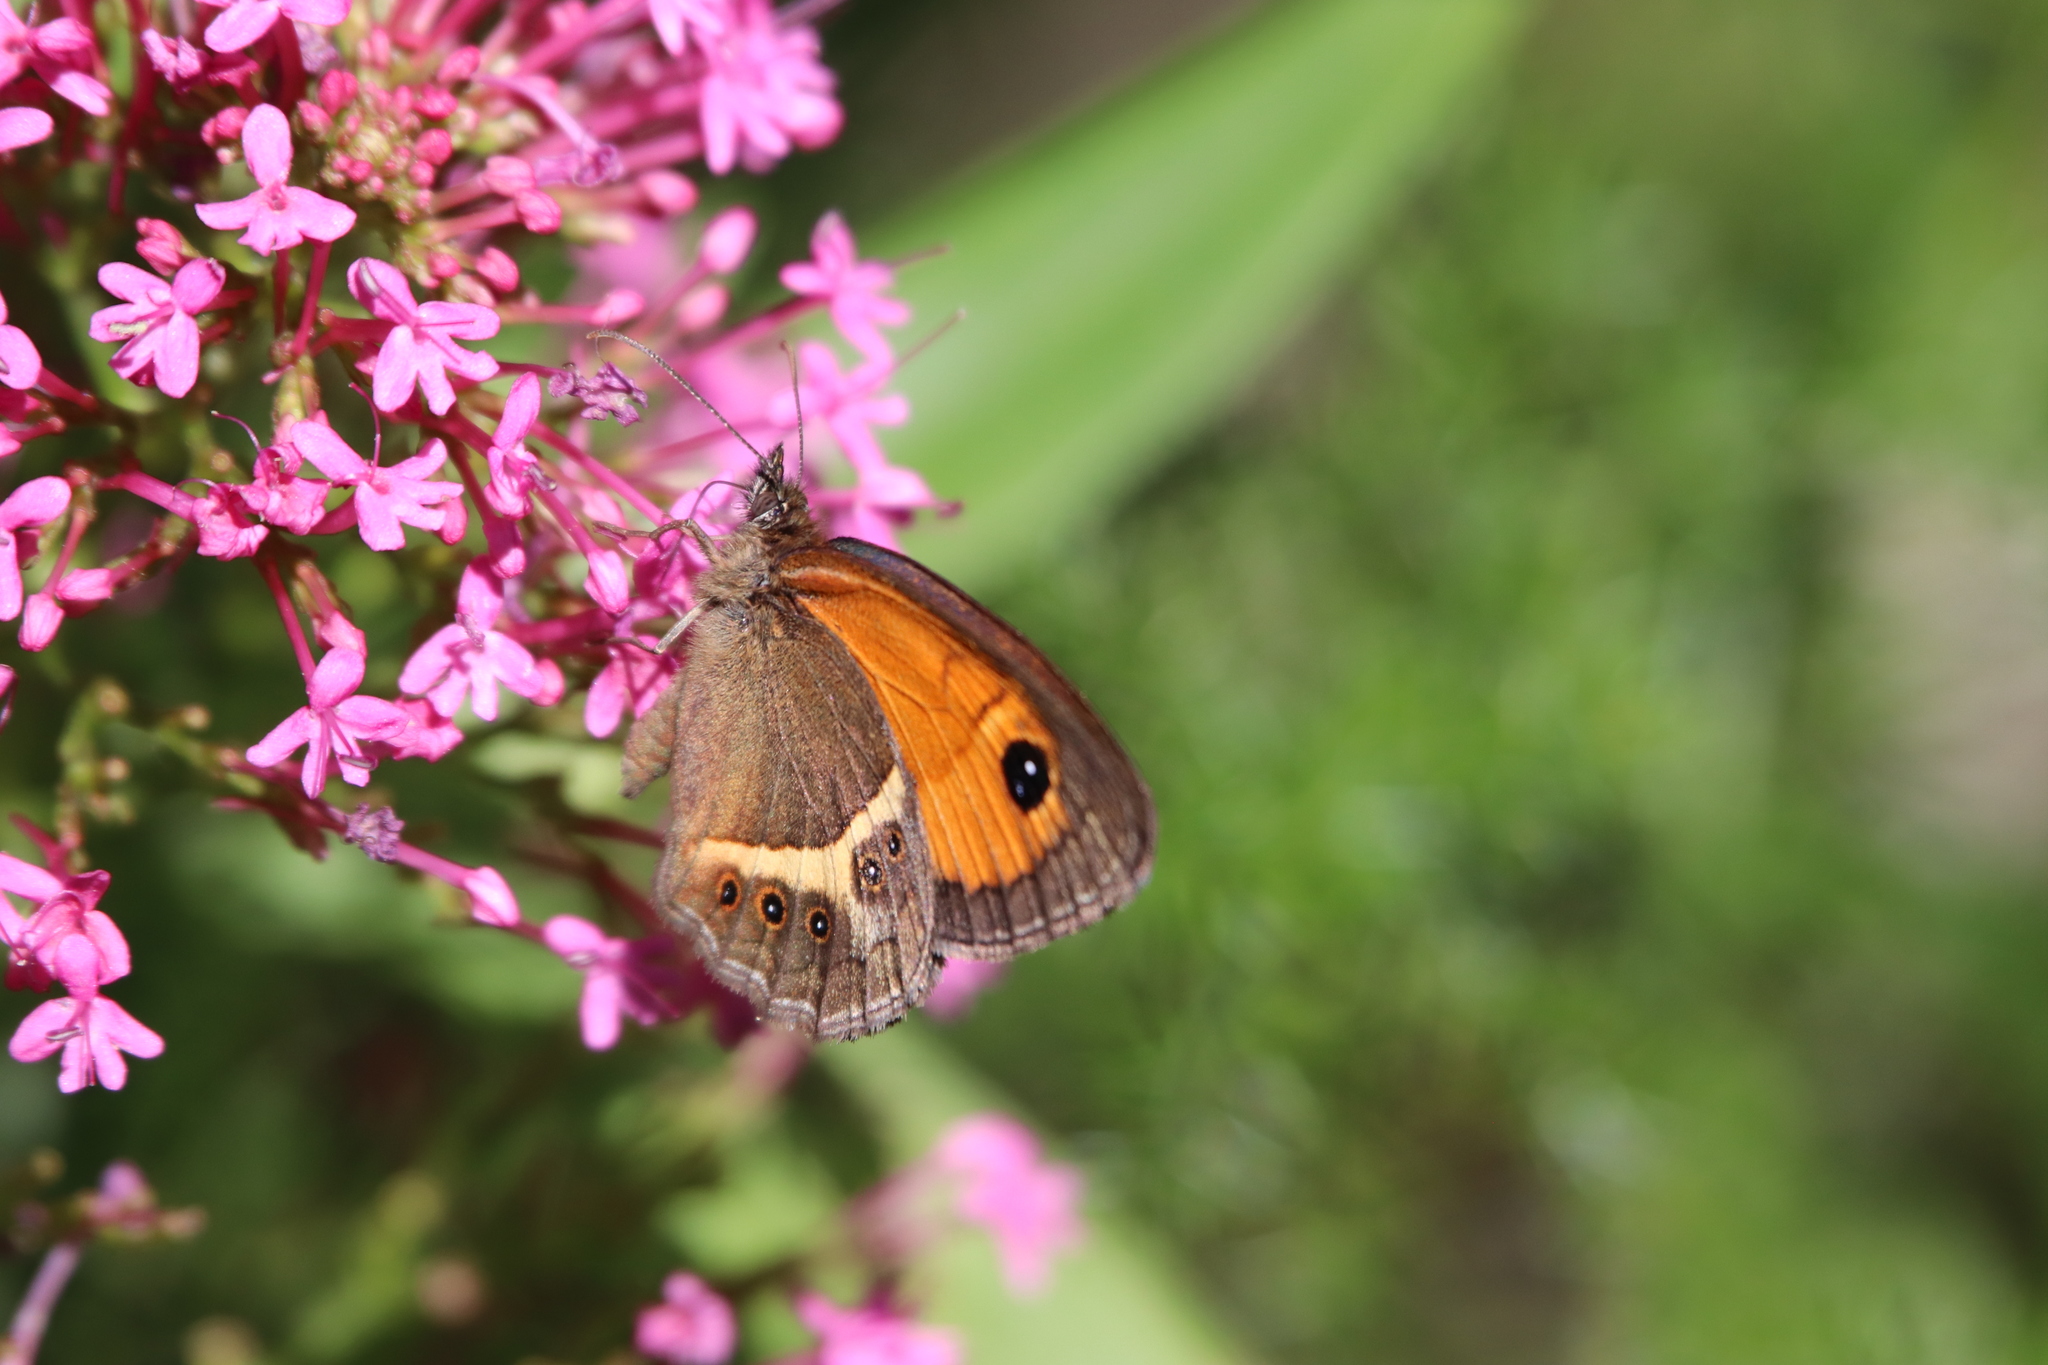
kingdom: Animalia
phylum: Arthropoda
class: Insecta
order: Lepidoptera
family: Nymphalidae
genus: Pyronia
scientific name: Pyronia bathseba
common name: Spanish gatekeeper
